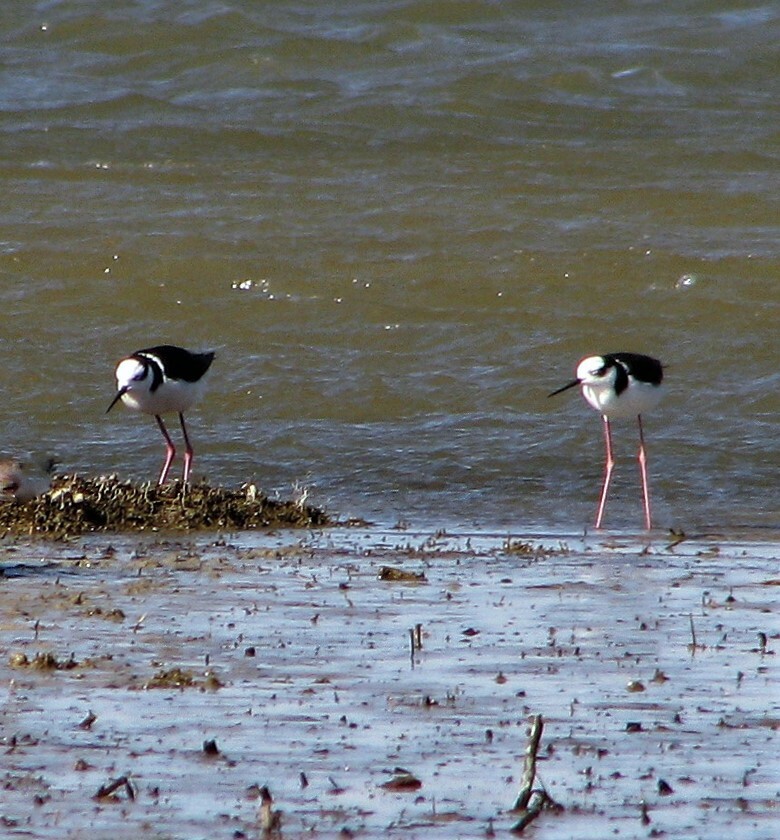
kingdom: Animalia
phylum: Chordata
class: Aves
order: Charadriiformes
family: Recurvirostridae
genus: Himantopus
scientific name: Himantopus mexicanus
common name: Black-necked stilt
